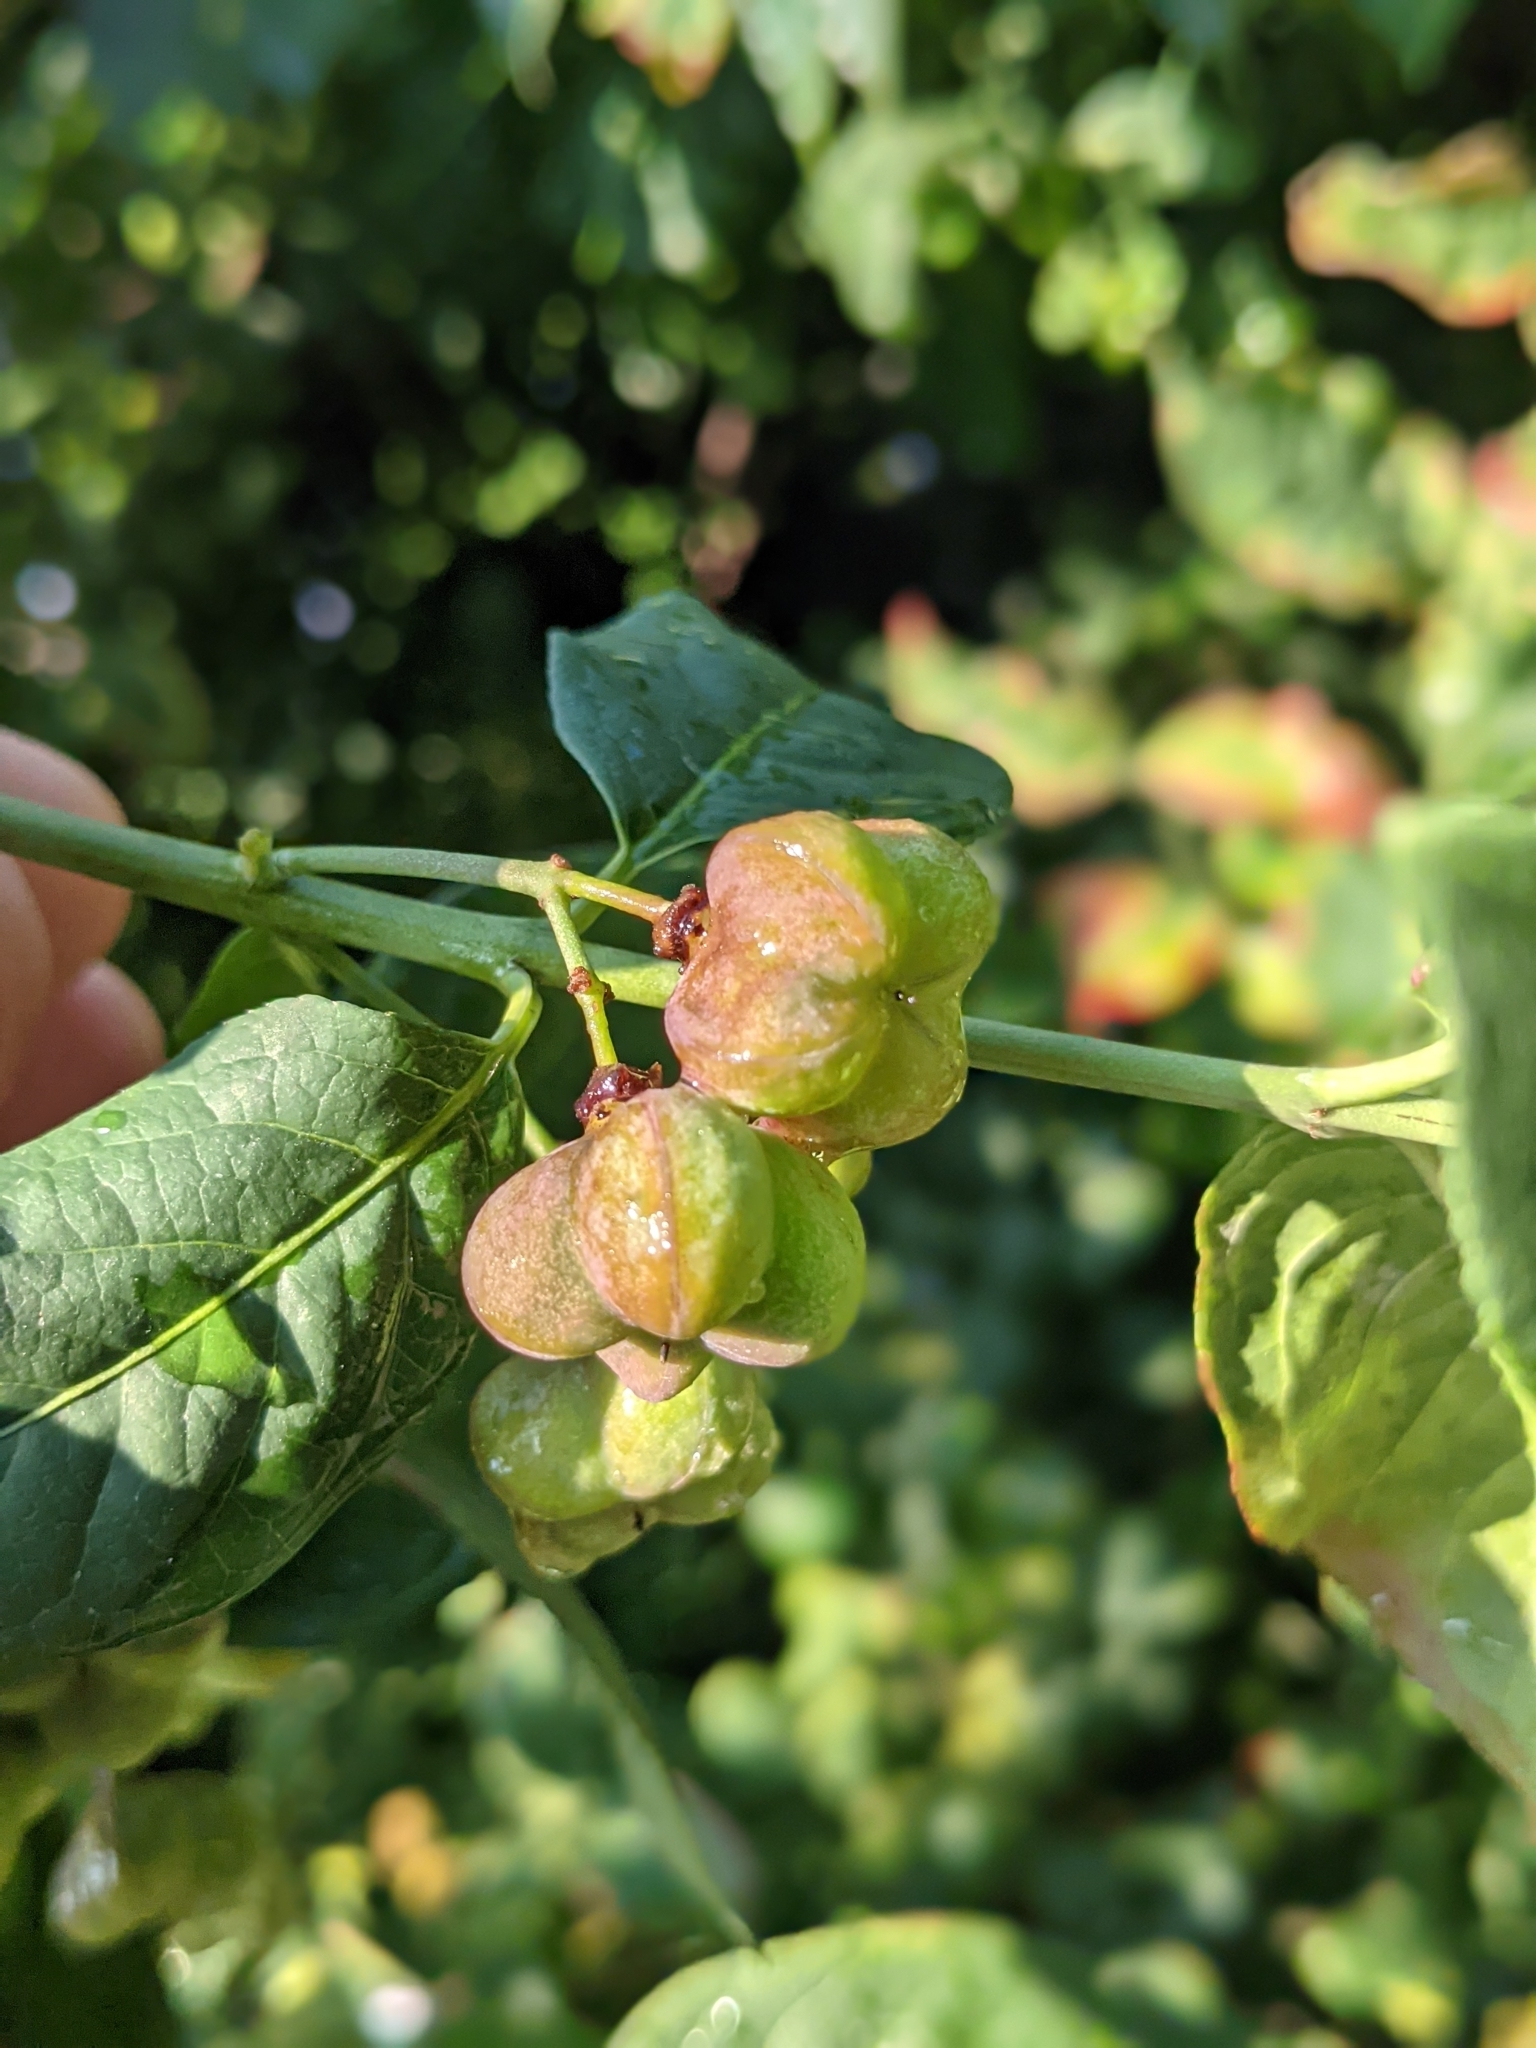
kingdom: Plantae
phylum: Tracheophyta
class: Magnoliopsida
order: Celastrales
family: Celastraceae
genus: Euonymus
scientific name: Euonymus europaeus
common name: Spindle
